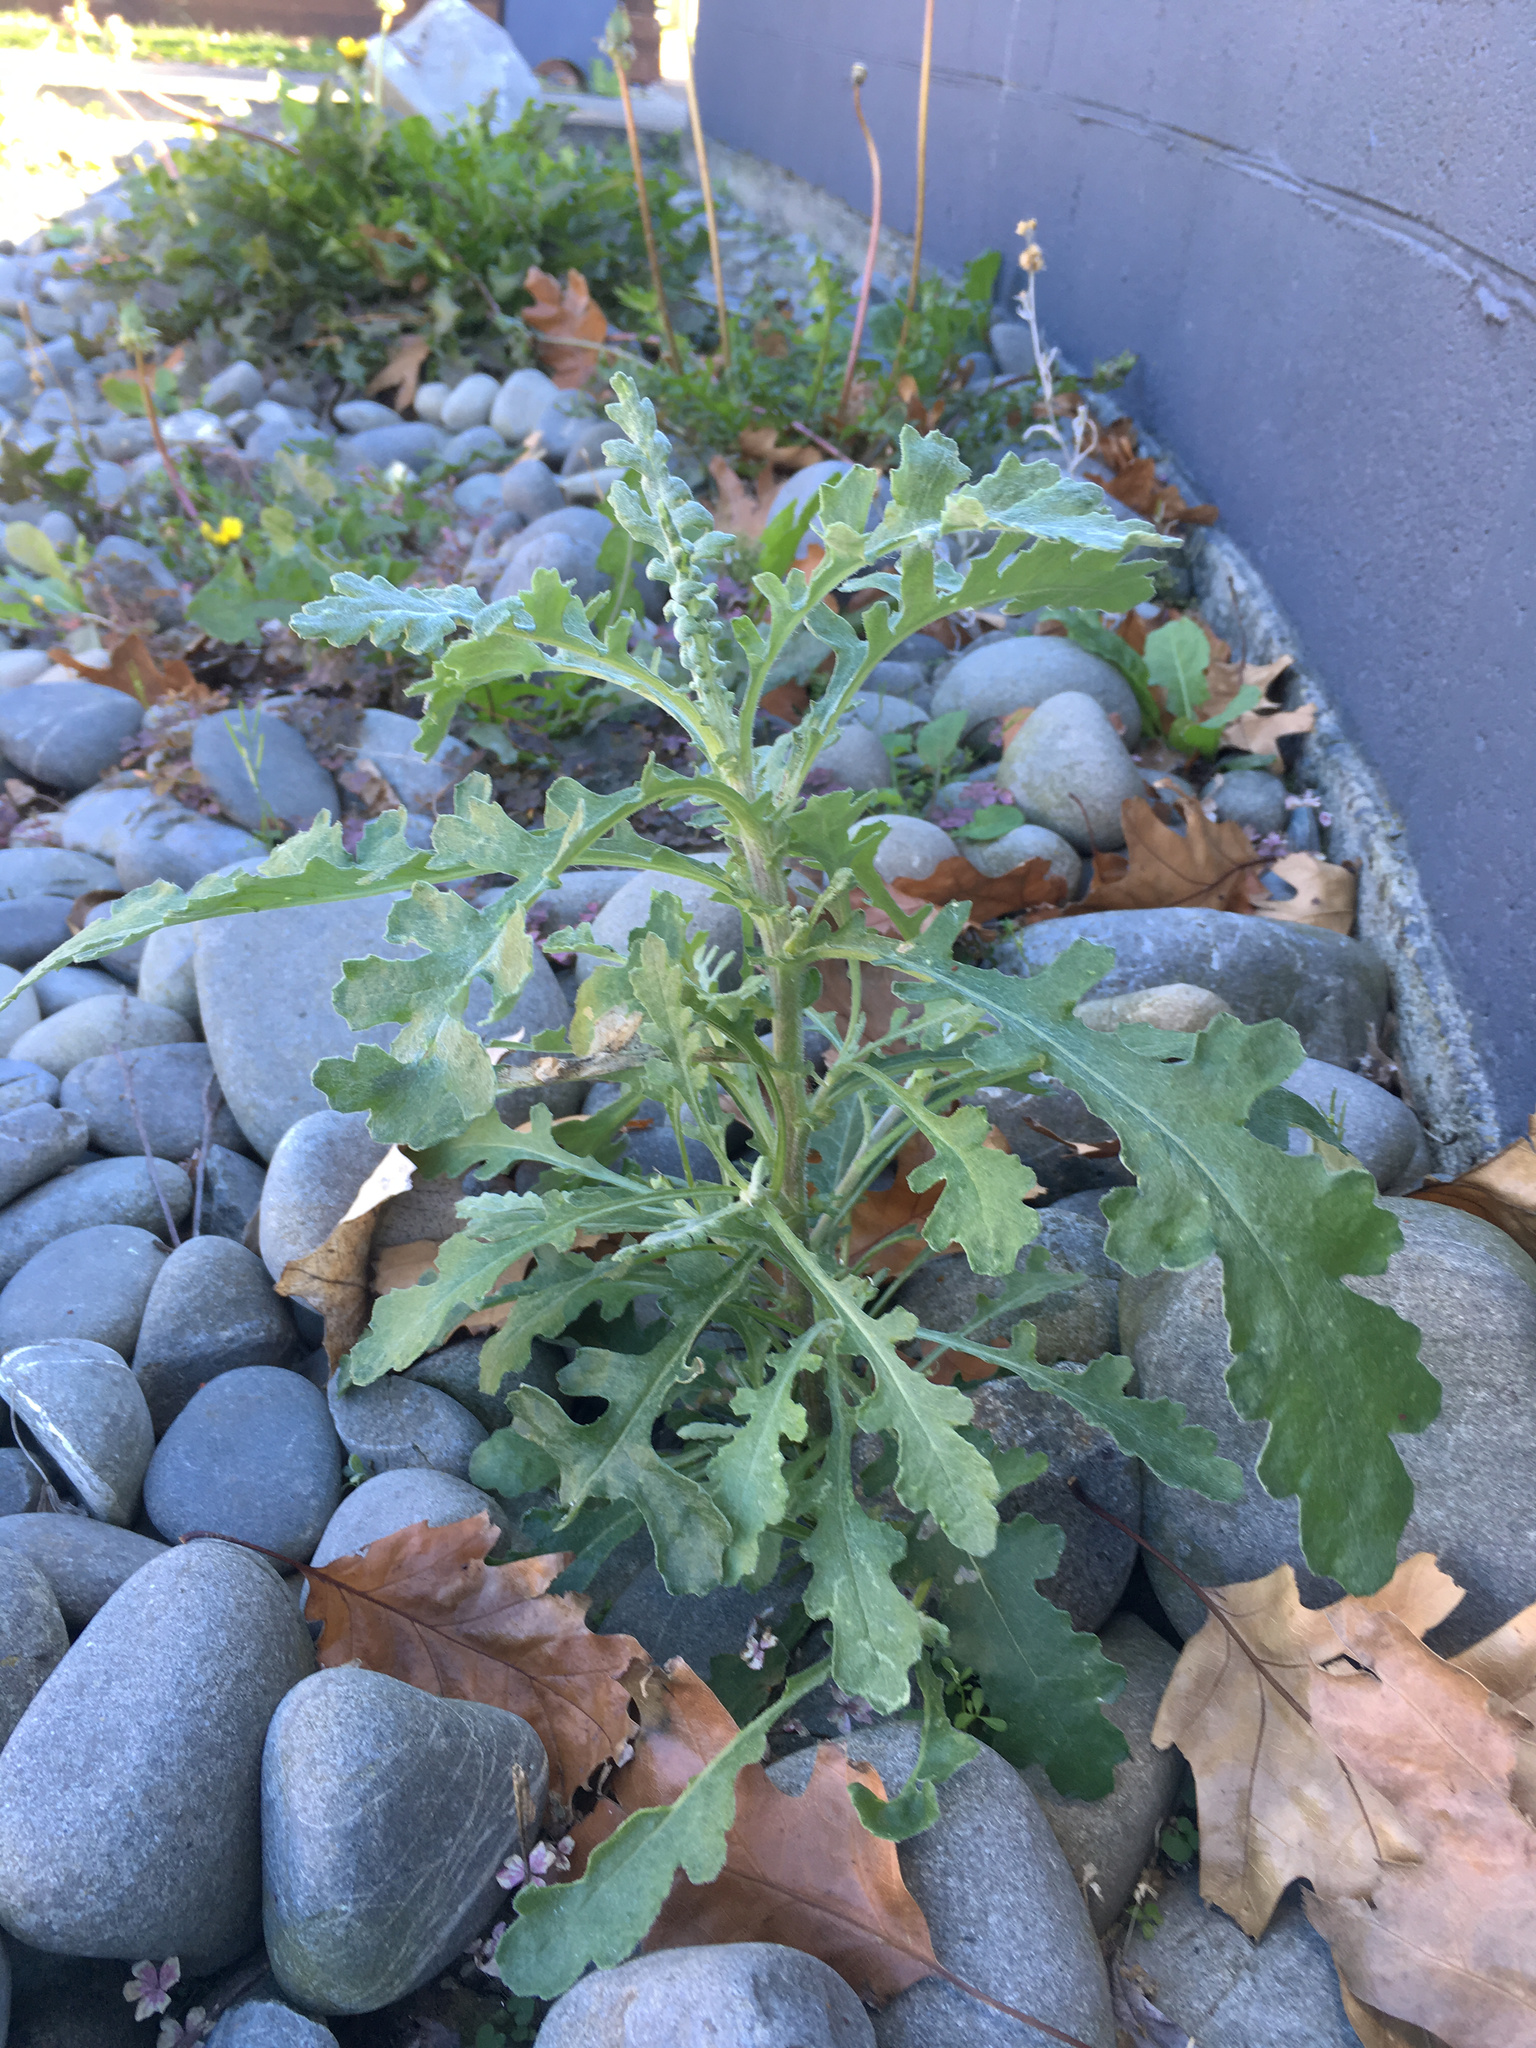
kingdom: Plantae
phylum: Tracheophyta
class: Magnoliopsida
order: Asterales
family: Asteraceae
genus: Senecio
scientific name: Senecio glomeratus
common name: Cutleaf burnweed
